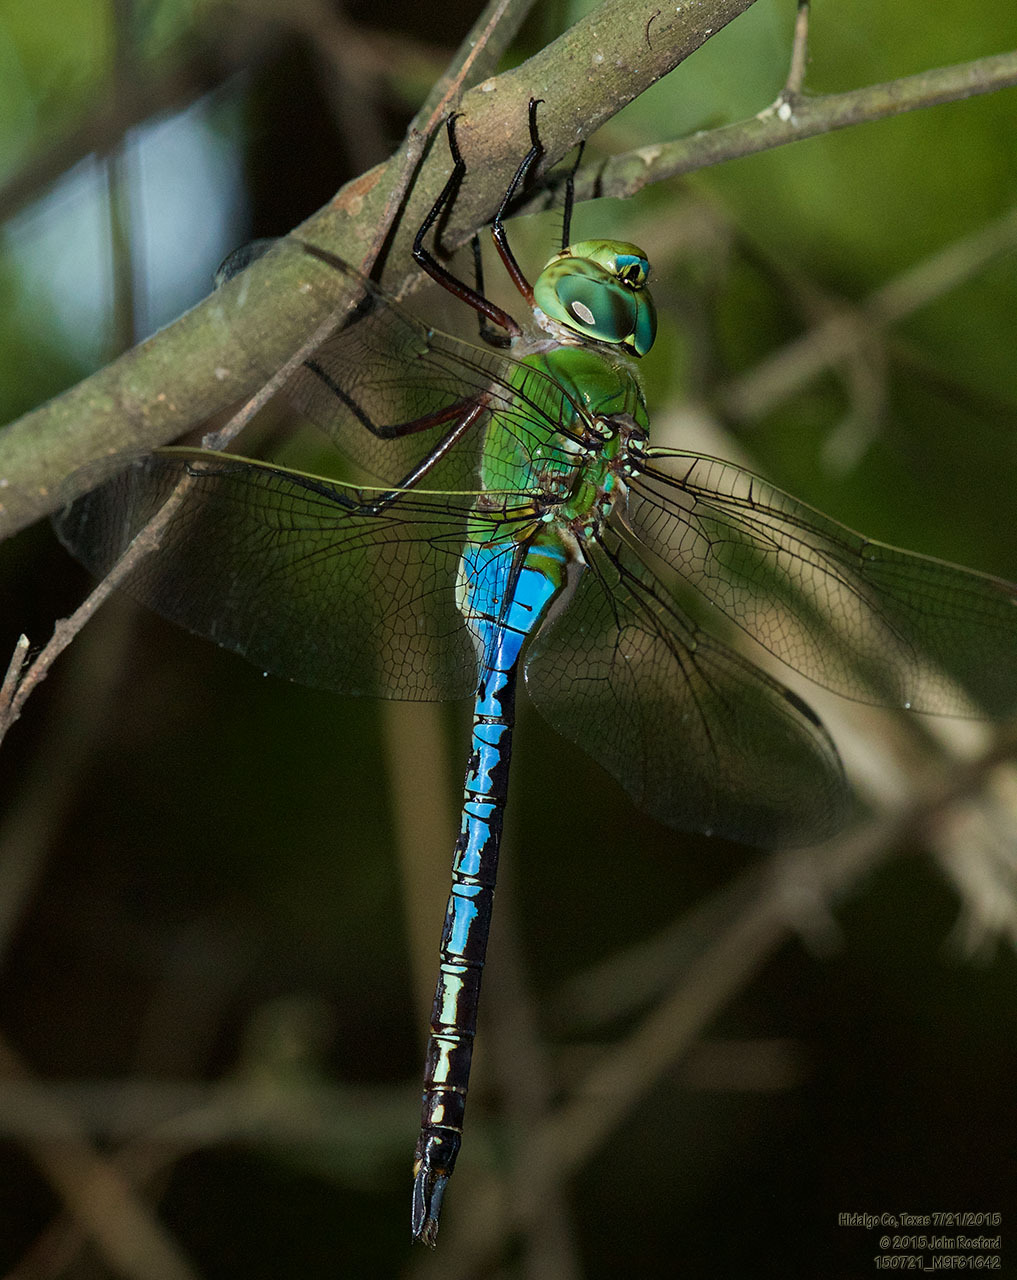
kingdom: Animalia
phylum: Arthropoda
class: Insecta
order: Odonata
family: Aeshnidae
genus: Anax
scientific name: Anax junius
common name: Common green darner
